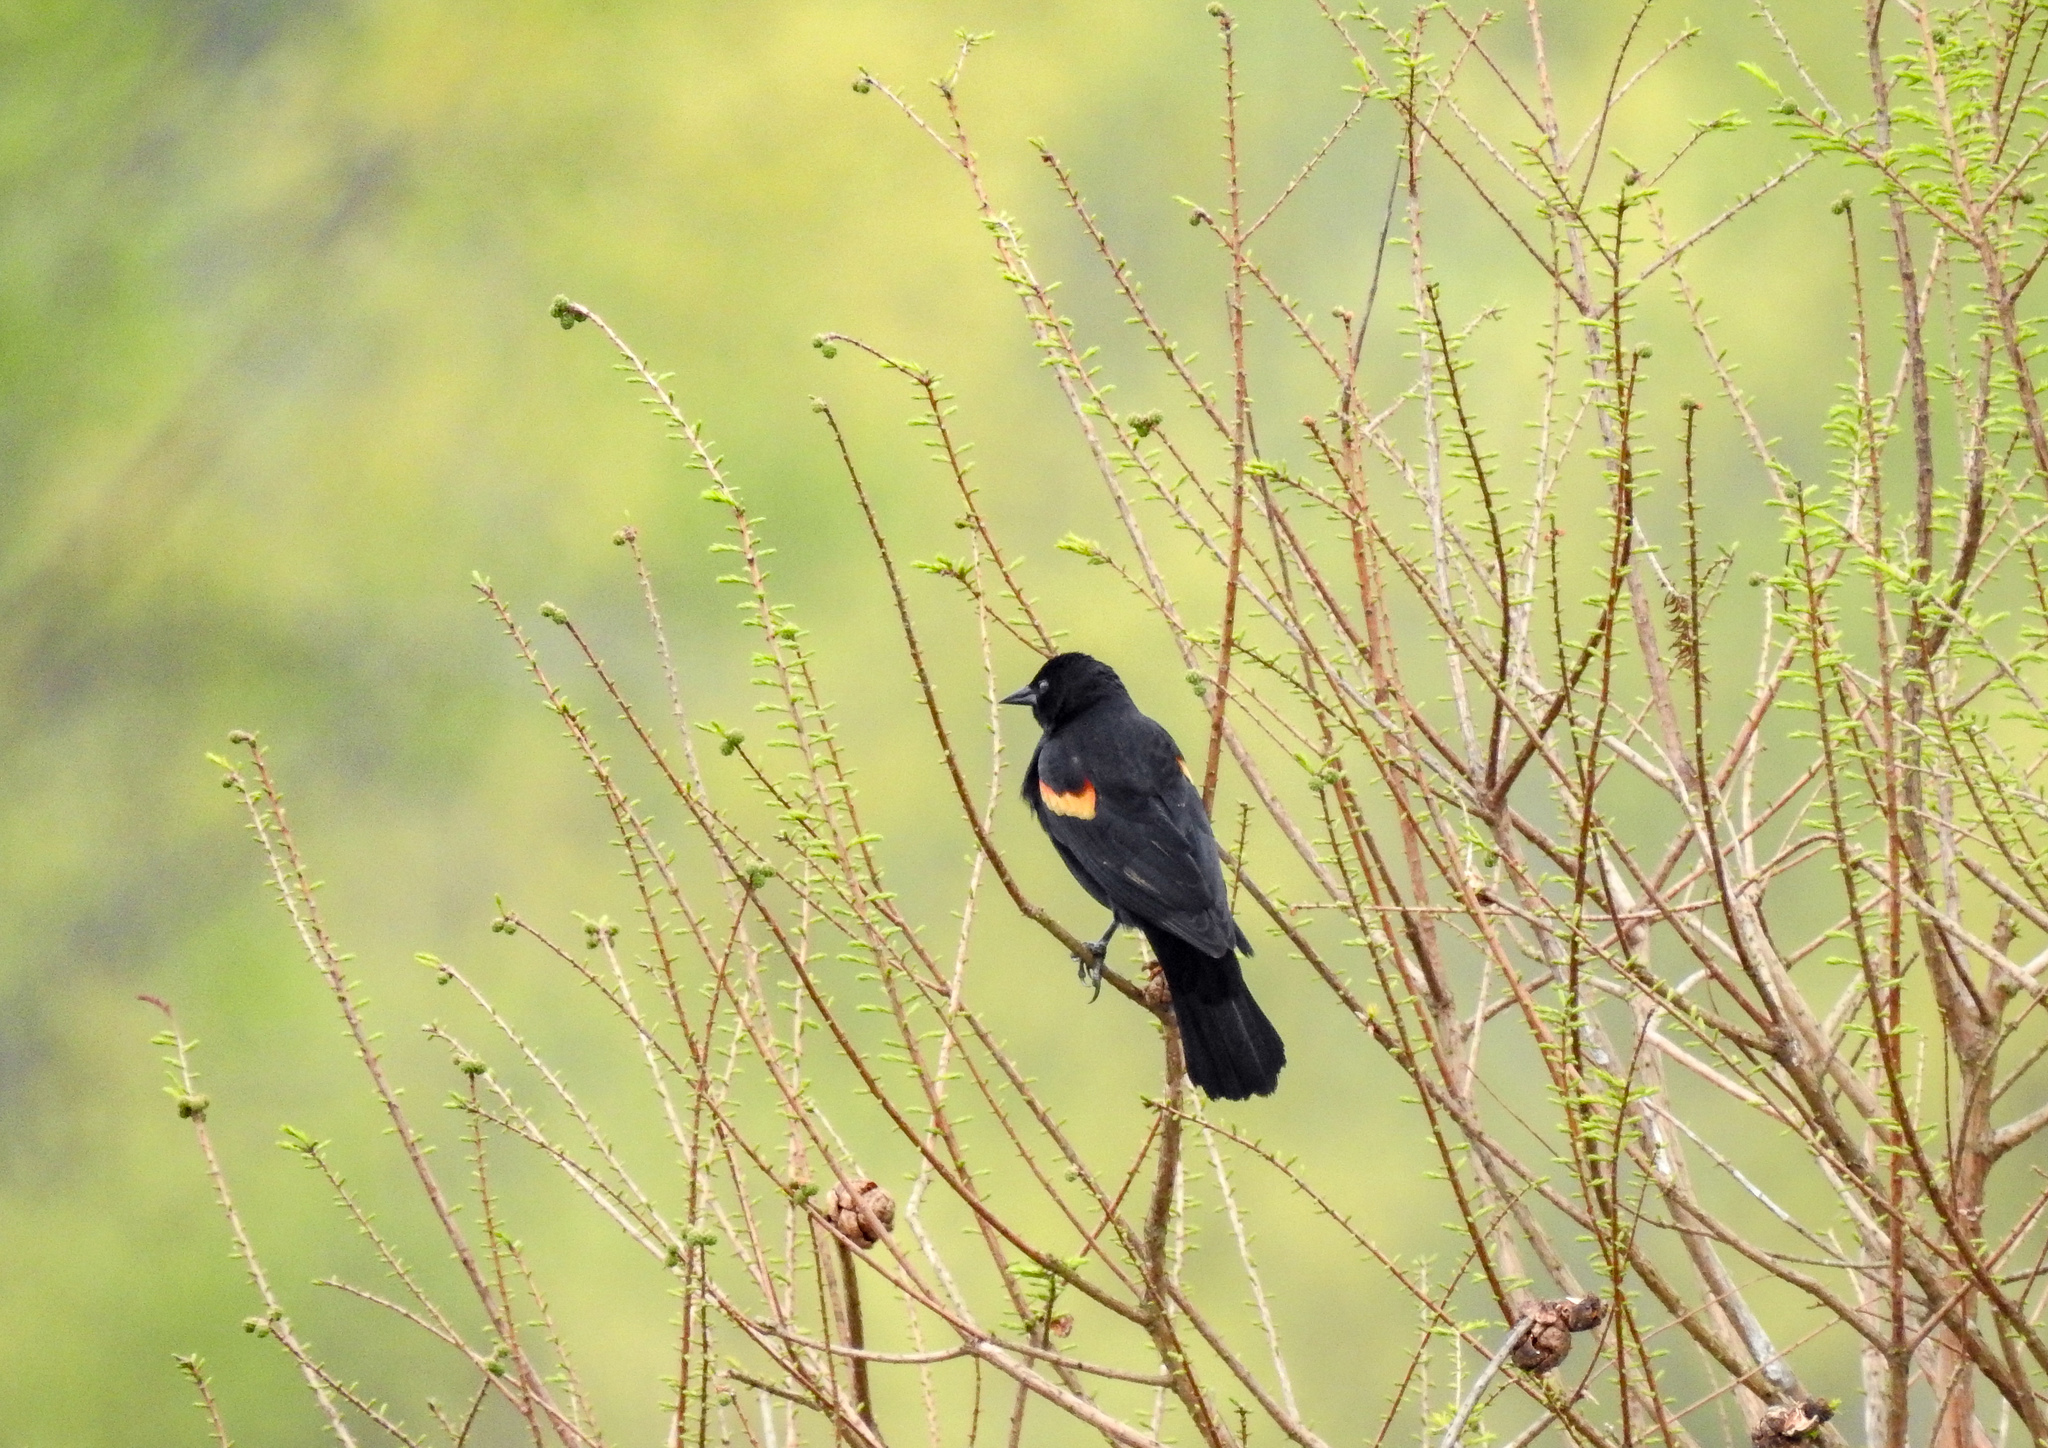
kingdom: Animalia
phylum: Chordata
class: Aves
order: Passeriformes
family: Icteridae
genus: Agelaius
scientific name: Agelaius phoeniceus
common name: Red-winged blackbird
